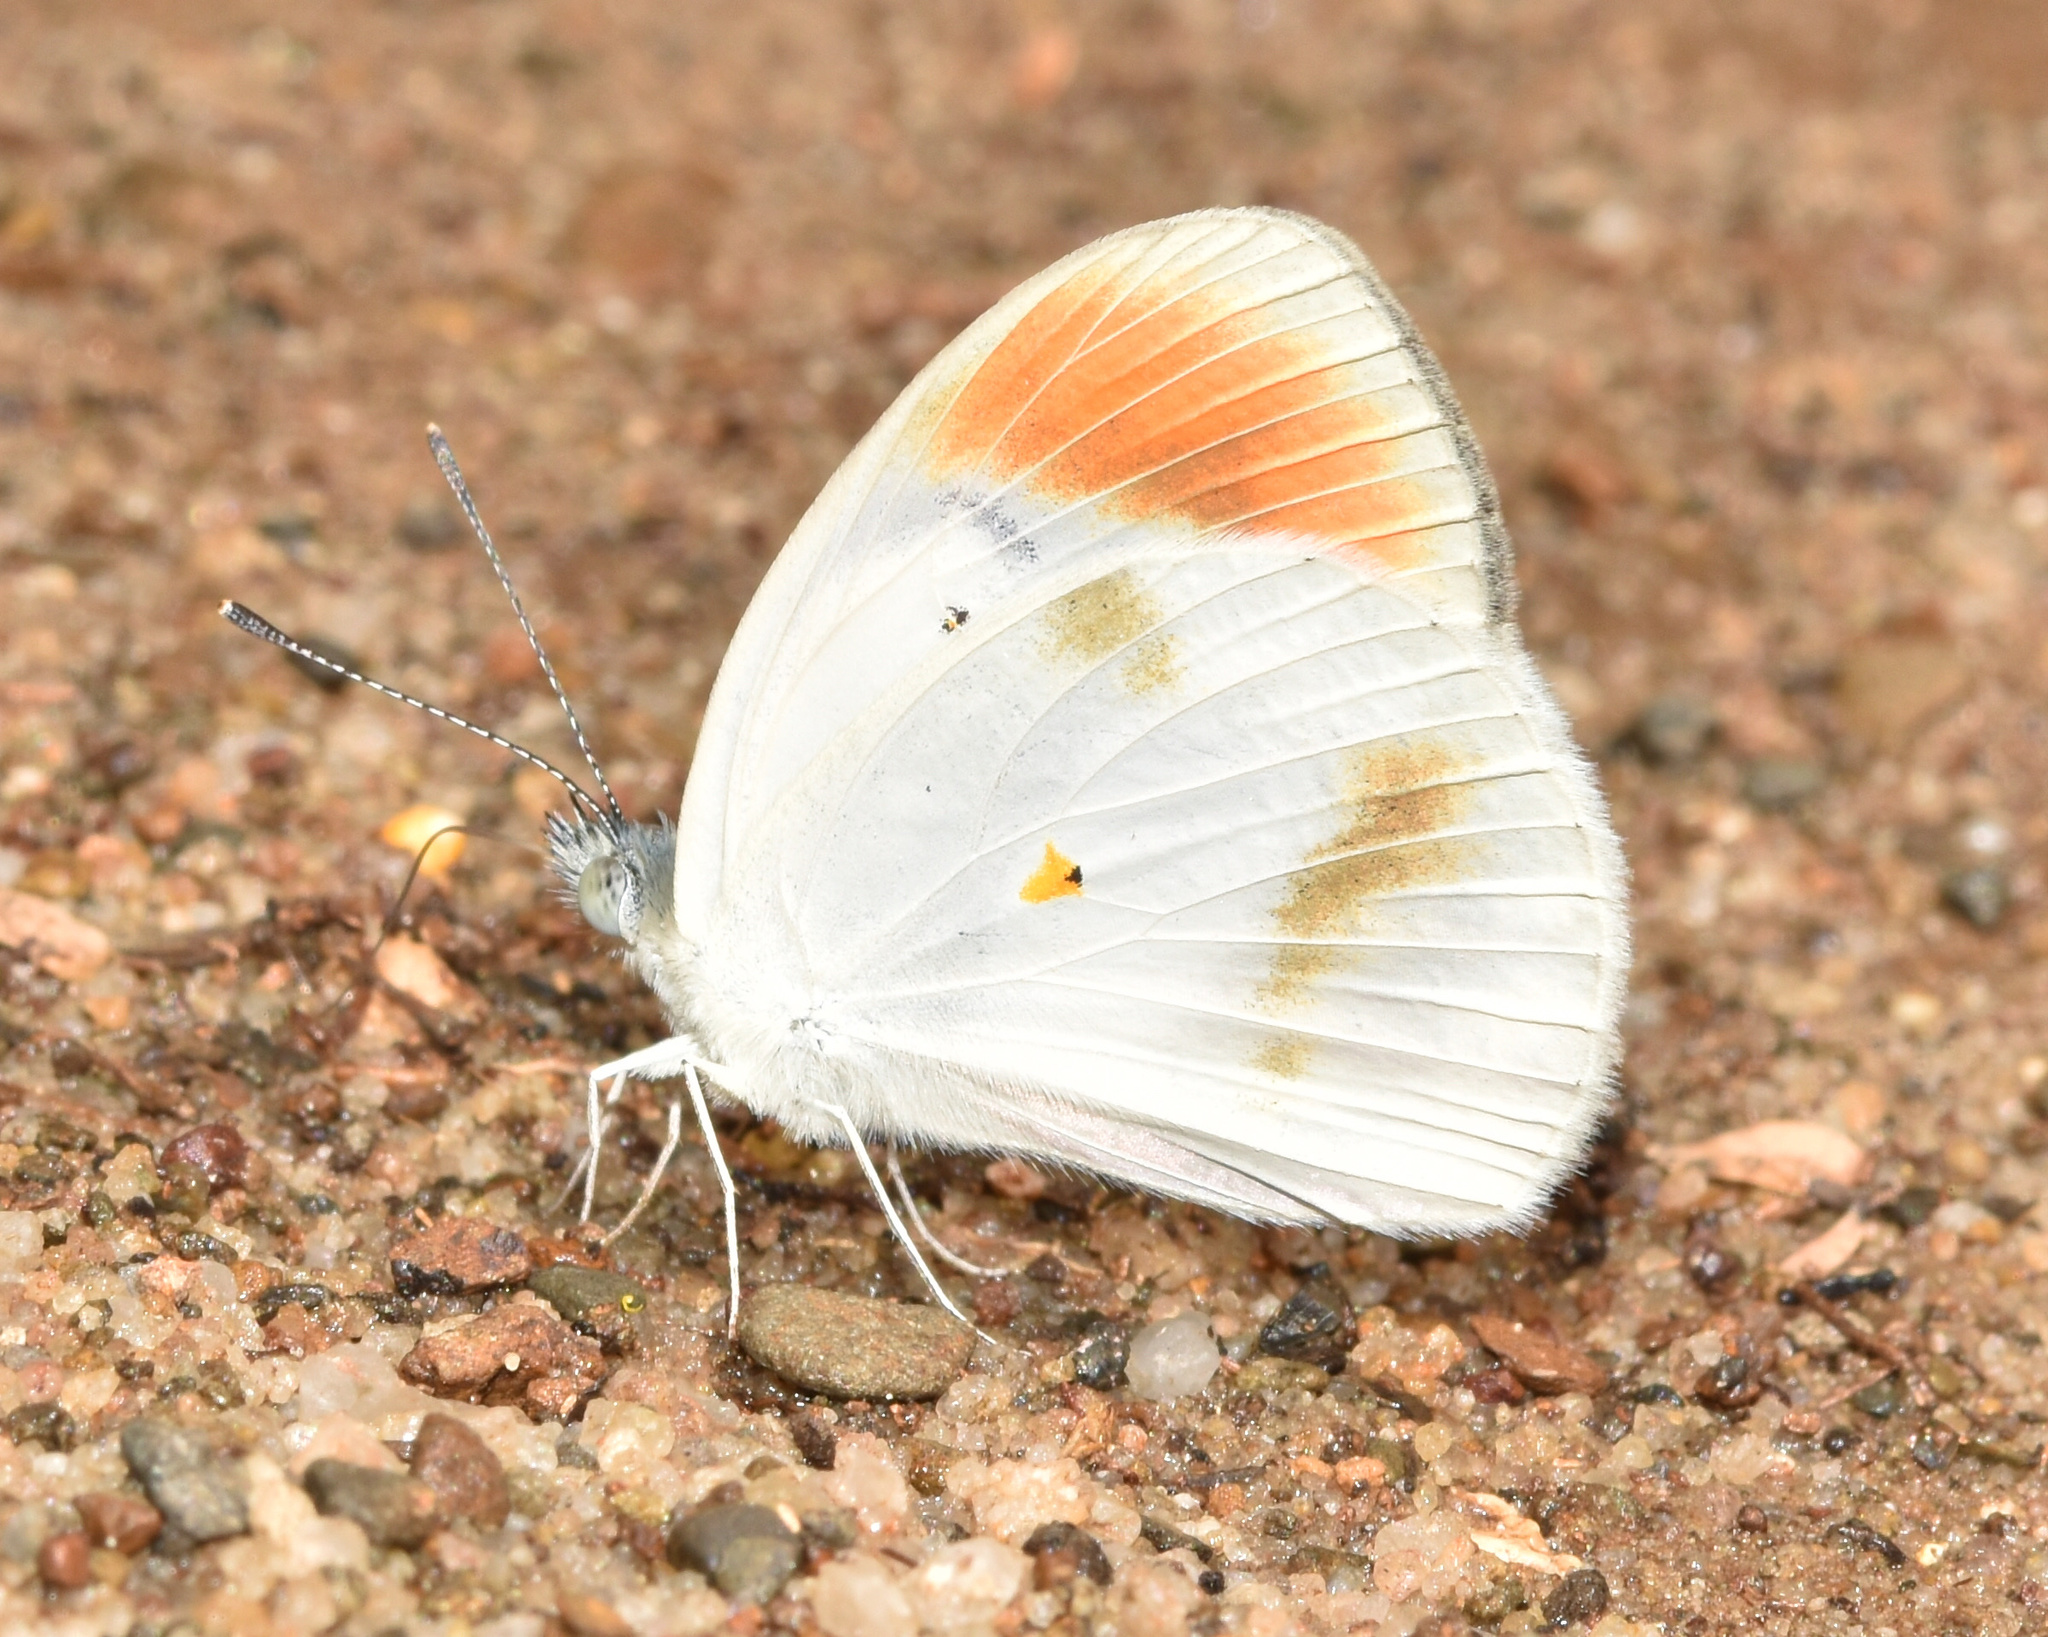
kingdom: Animalia
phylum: Arthropoda
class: Insecta
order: Lepidoptera
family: Pieridae
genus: Colotis
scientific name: Colotis euippe
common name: Round-winged orange tip
